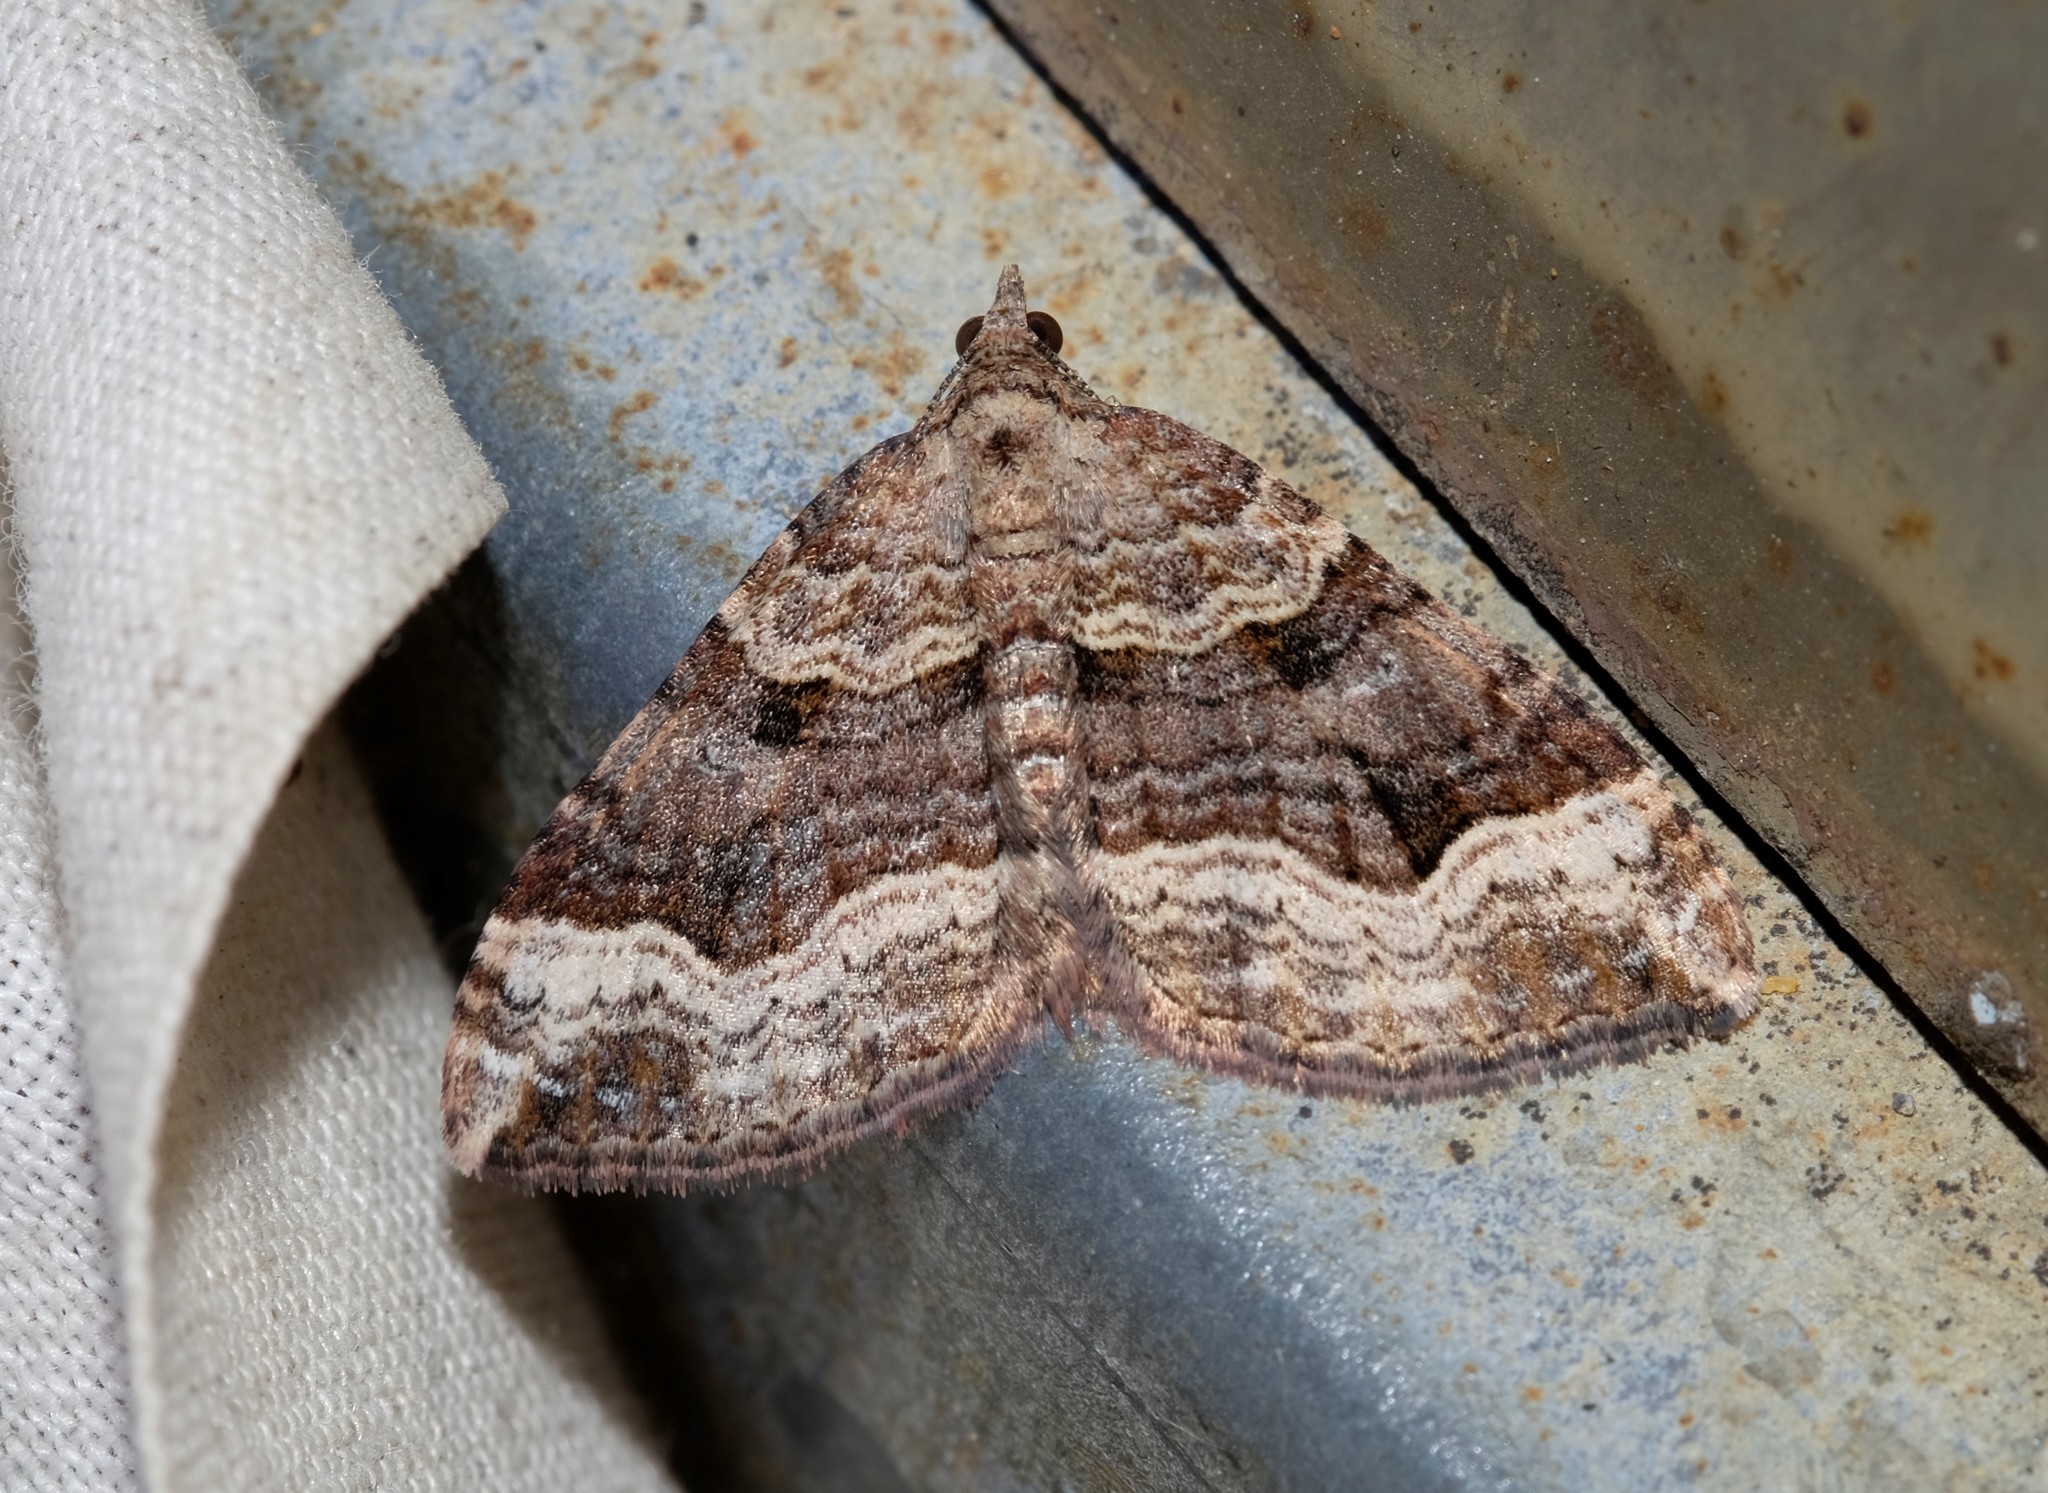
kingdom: Animalia
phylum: Arthropoda
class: Insecta
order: Lepidoptera
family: Geometridae
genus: Epyaxa
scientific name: Epyaxa subidaria
